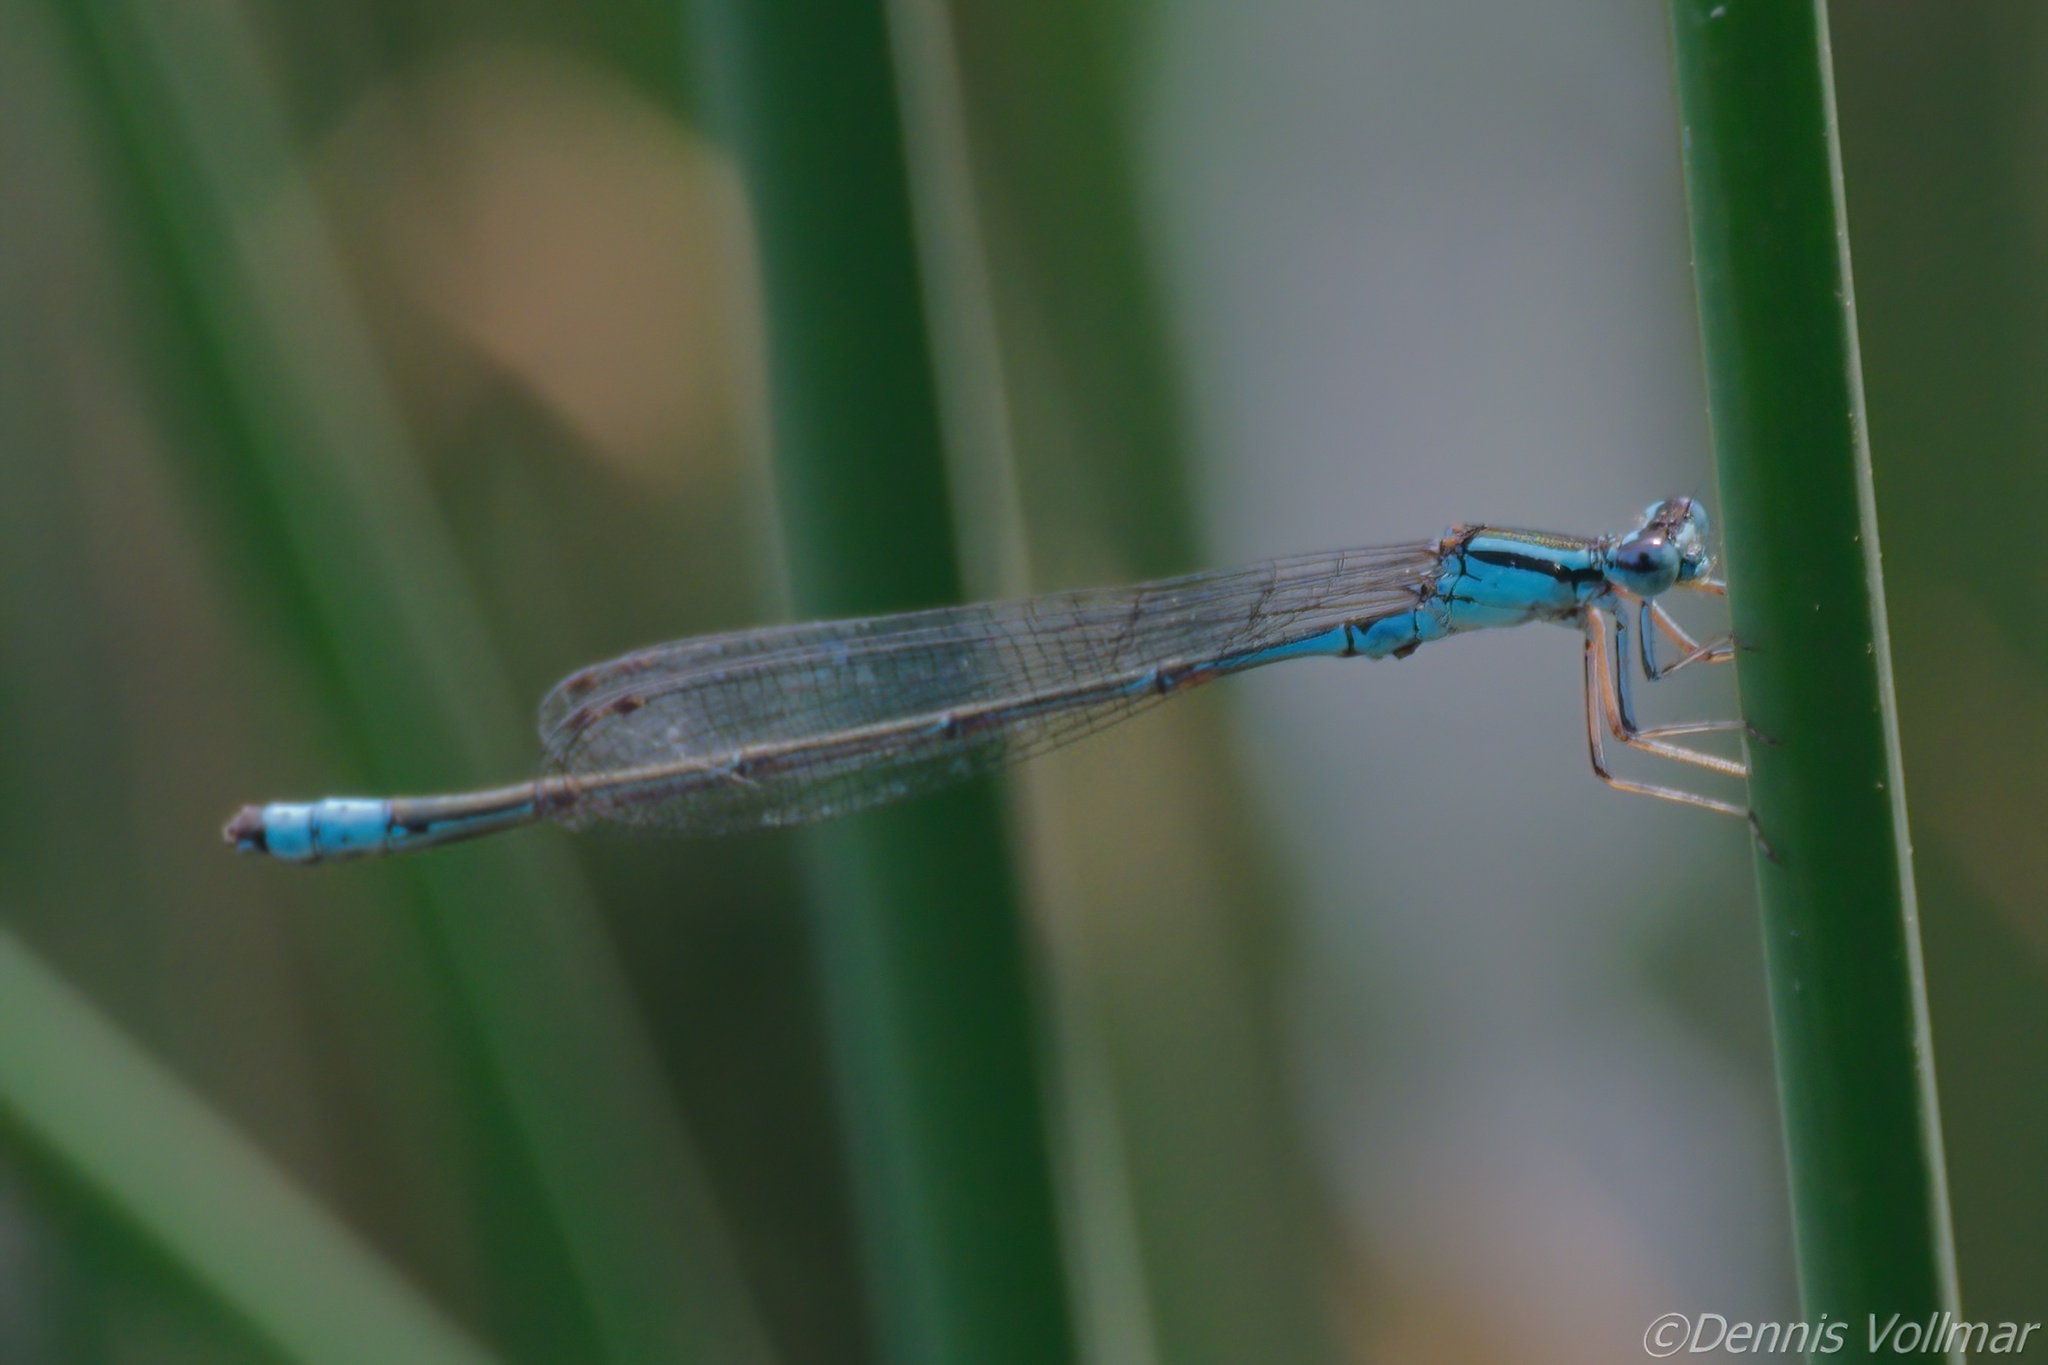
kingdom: Animalia
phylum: Arthropoda
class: Insecta
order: Odonata
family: Coenagrionidae
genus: Enallagma
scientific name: Enallagma divagans
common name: Turquoise bluet
